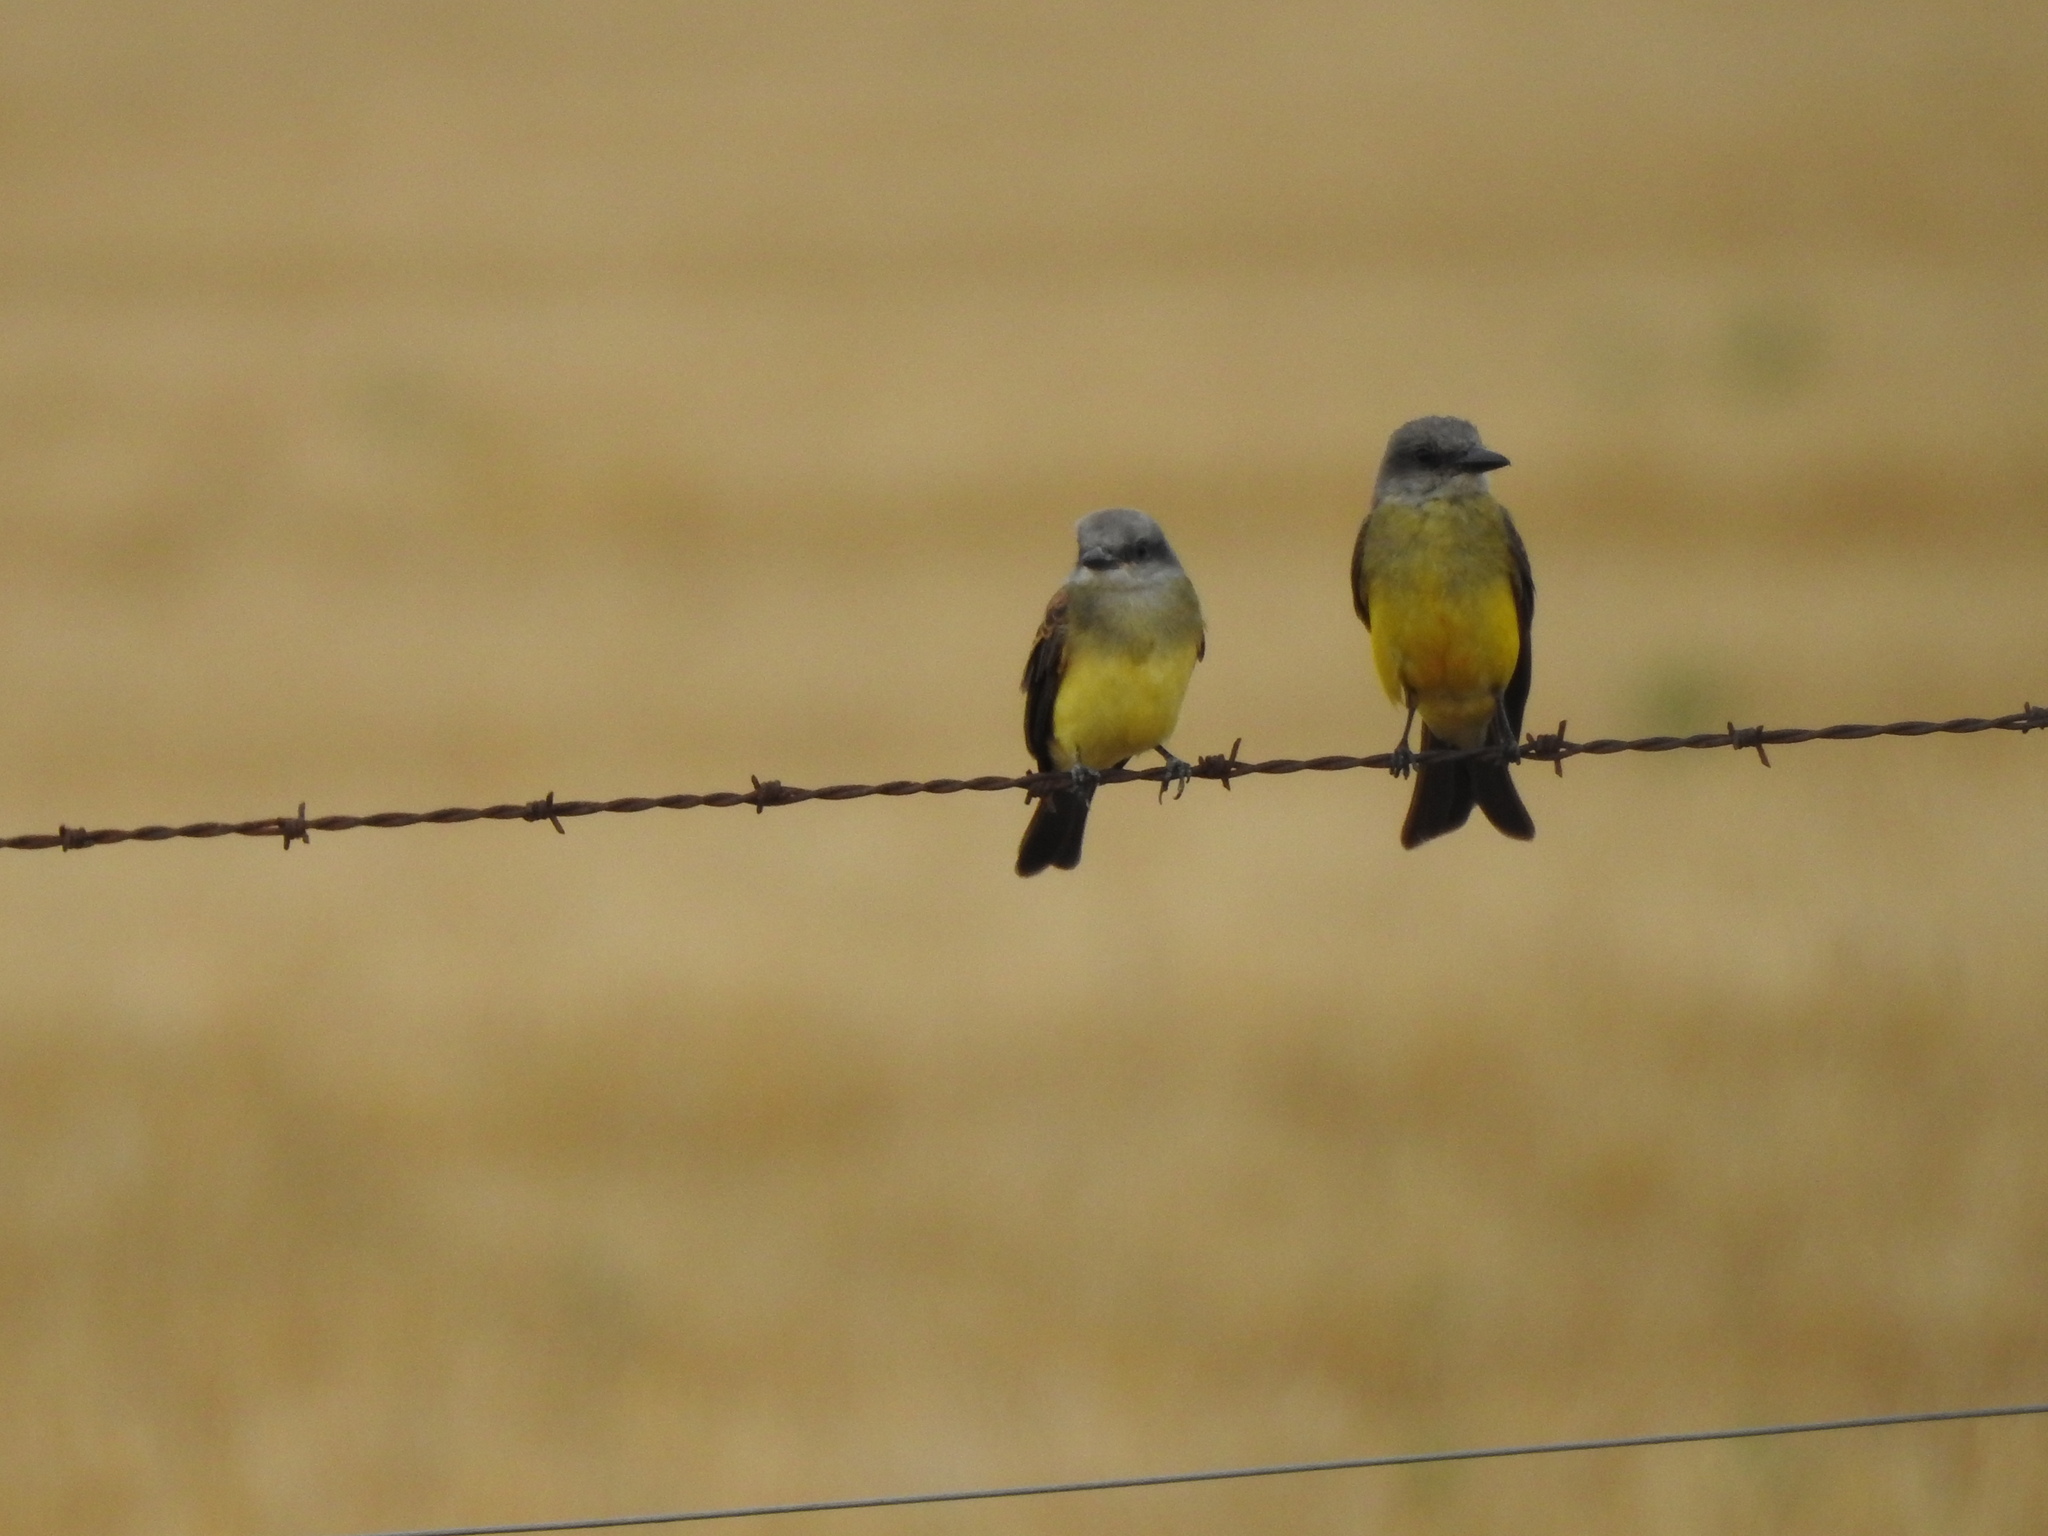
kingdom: Animalia
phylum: Chordata
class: Aves
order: Passeriformes
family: Tyrannidae
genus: Tyrannus
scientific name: Tyrannus melancholicus
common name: Tropical kingbird
